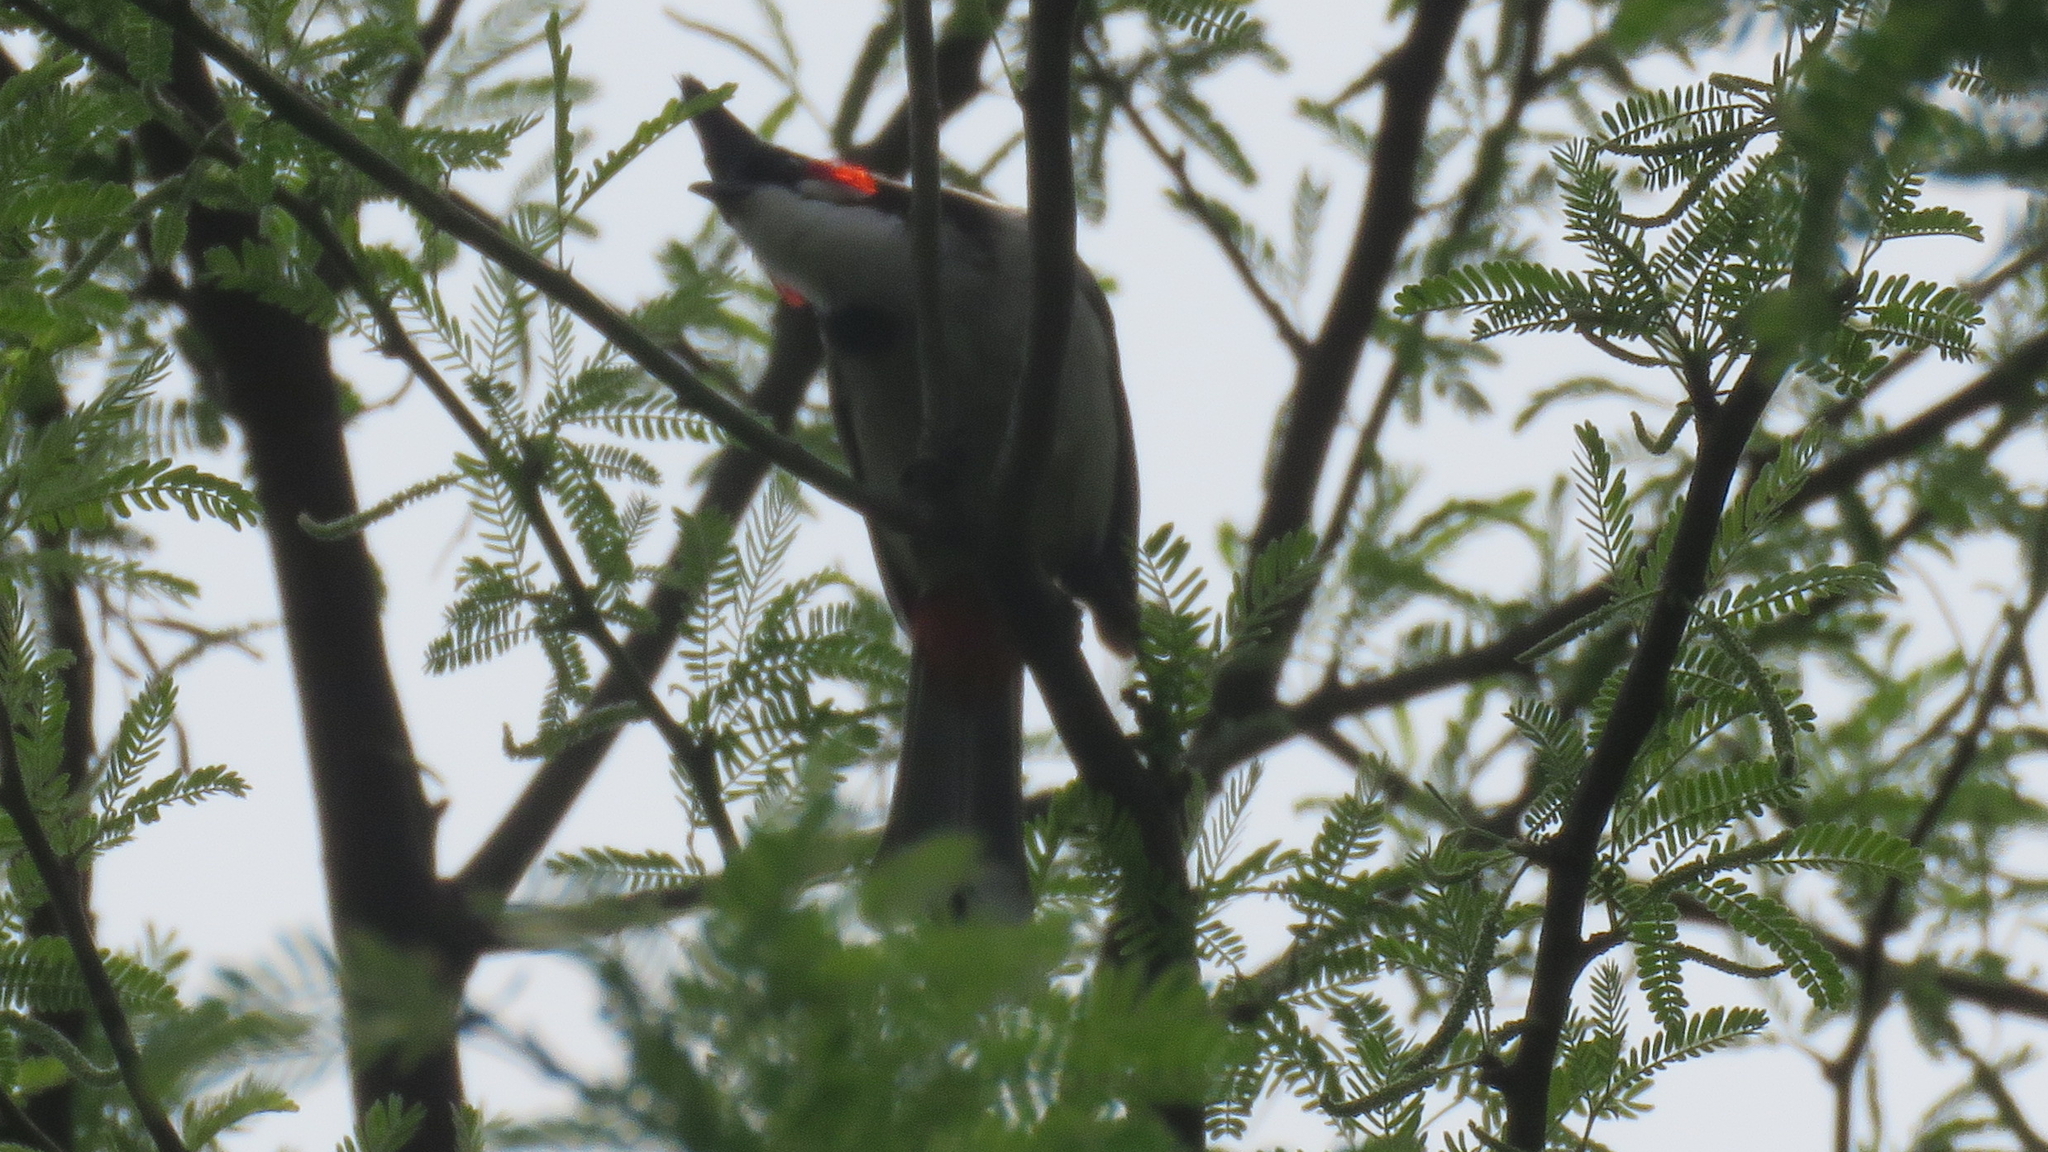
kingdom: Animalia
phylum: Chordata
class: Aves
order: Passeriformes
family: Pycnonotidae
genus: Pycnonotus
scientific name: Pycnonotus jocosus
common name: Red-whiskered bulbul
